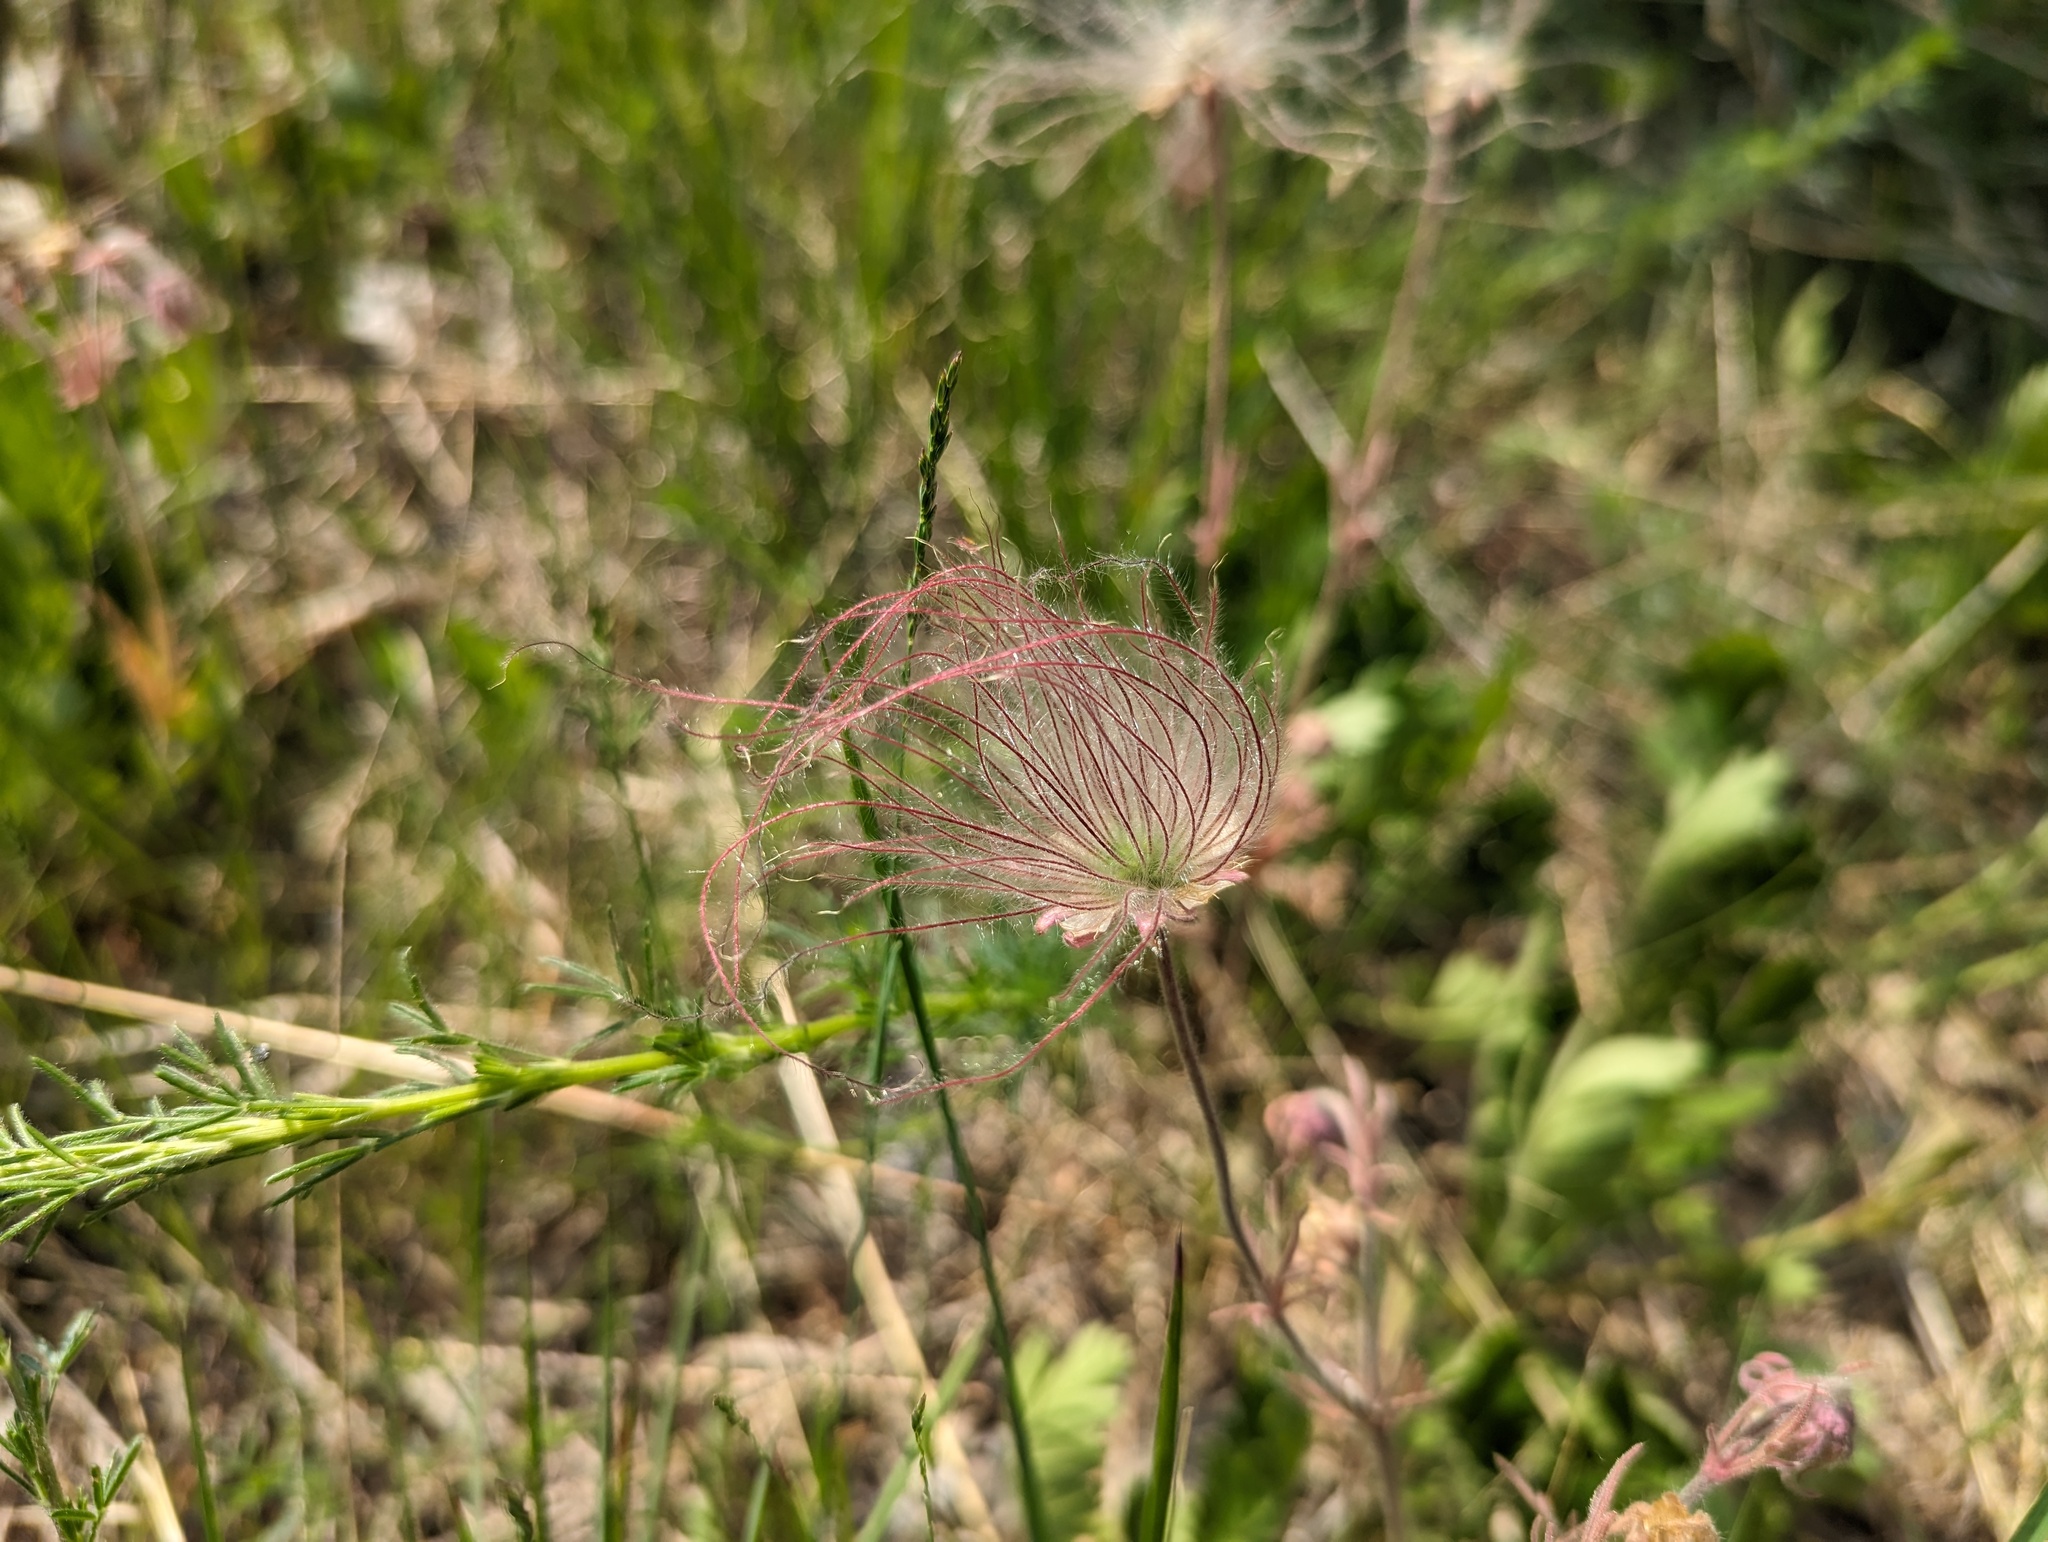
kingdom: Plantae
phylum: Tracheophyta
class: Magnoliopsida
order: Rosales
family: Rosaceae
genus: Geum
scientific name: Geum triflorum
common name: Old man's whiskers
